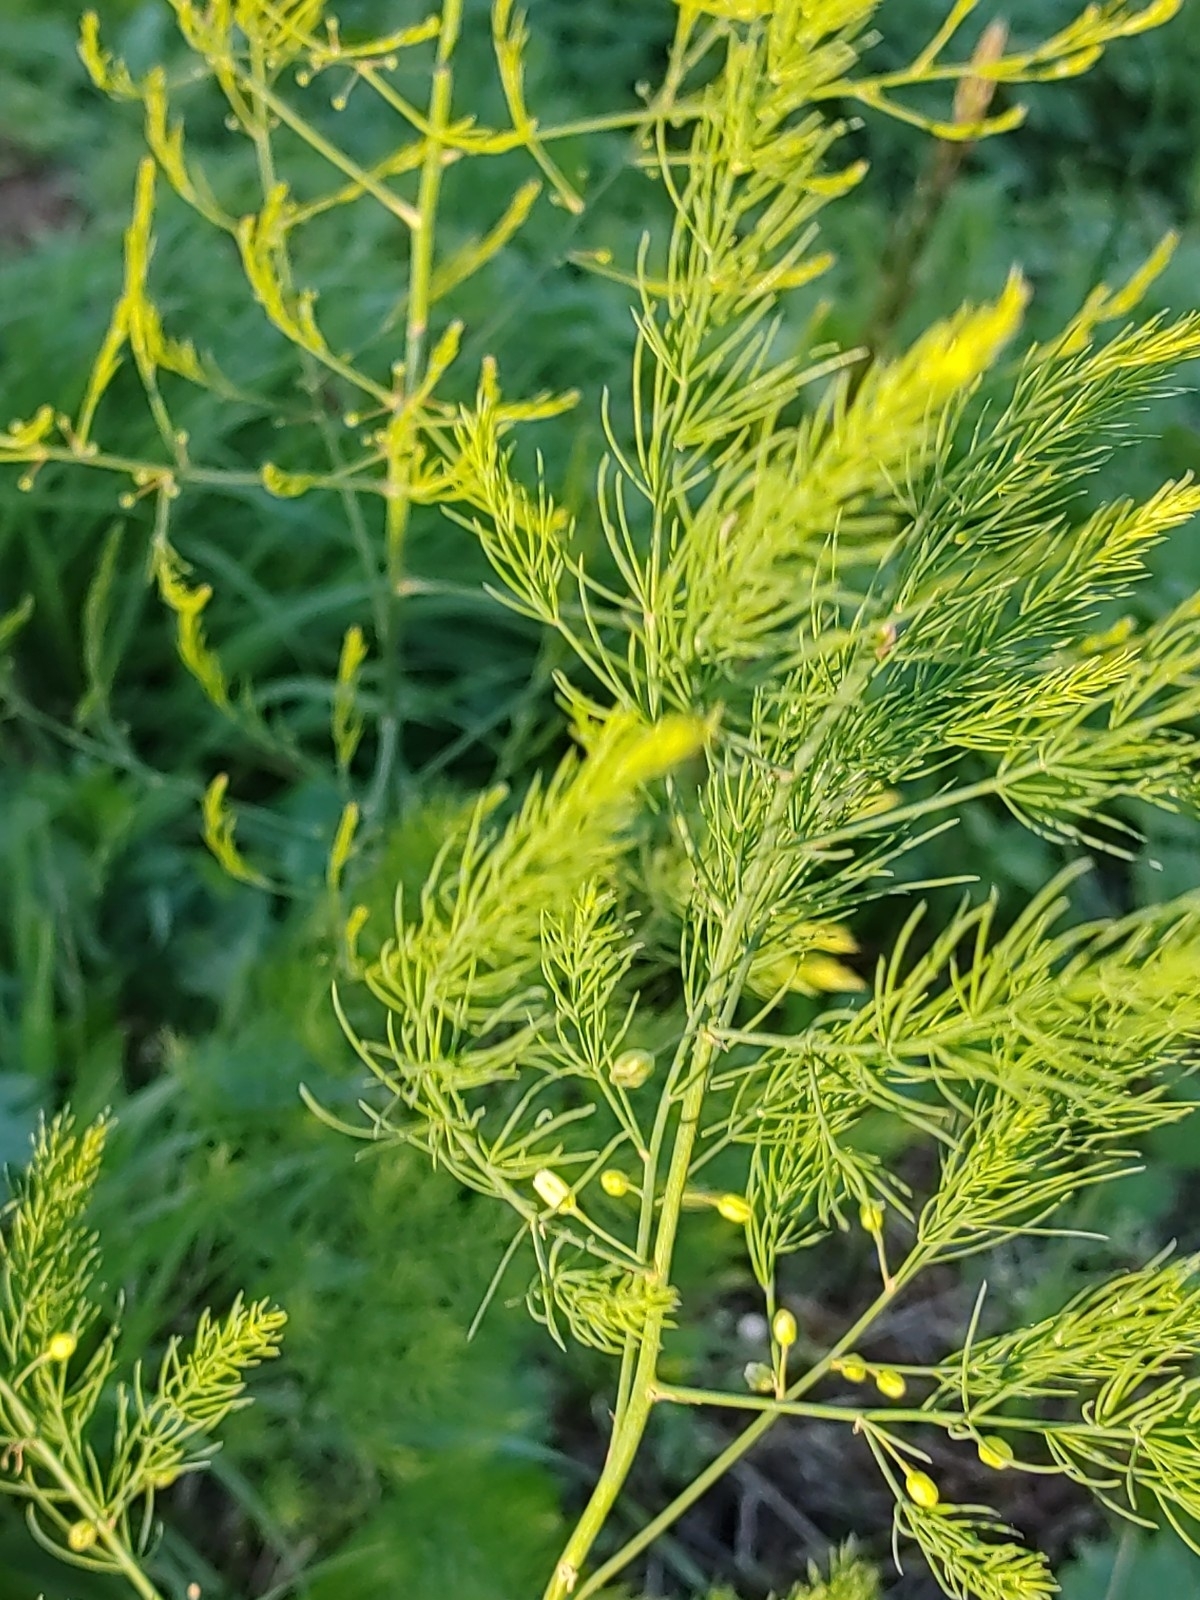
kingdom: Plantae
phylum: Tracheophyta
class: Liliopsida
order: Asparagales
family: Asparagaceae
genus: Asparagus
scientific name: Asparagus officinalis
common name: Garden asparagus
